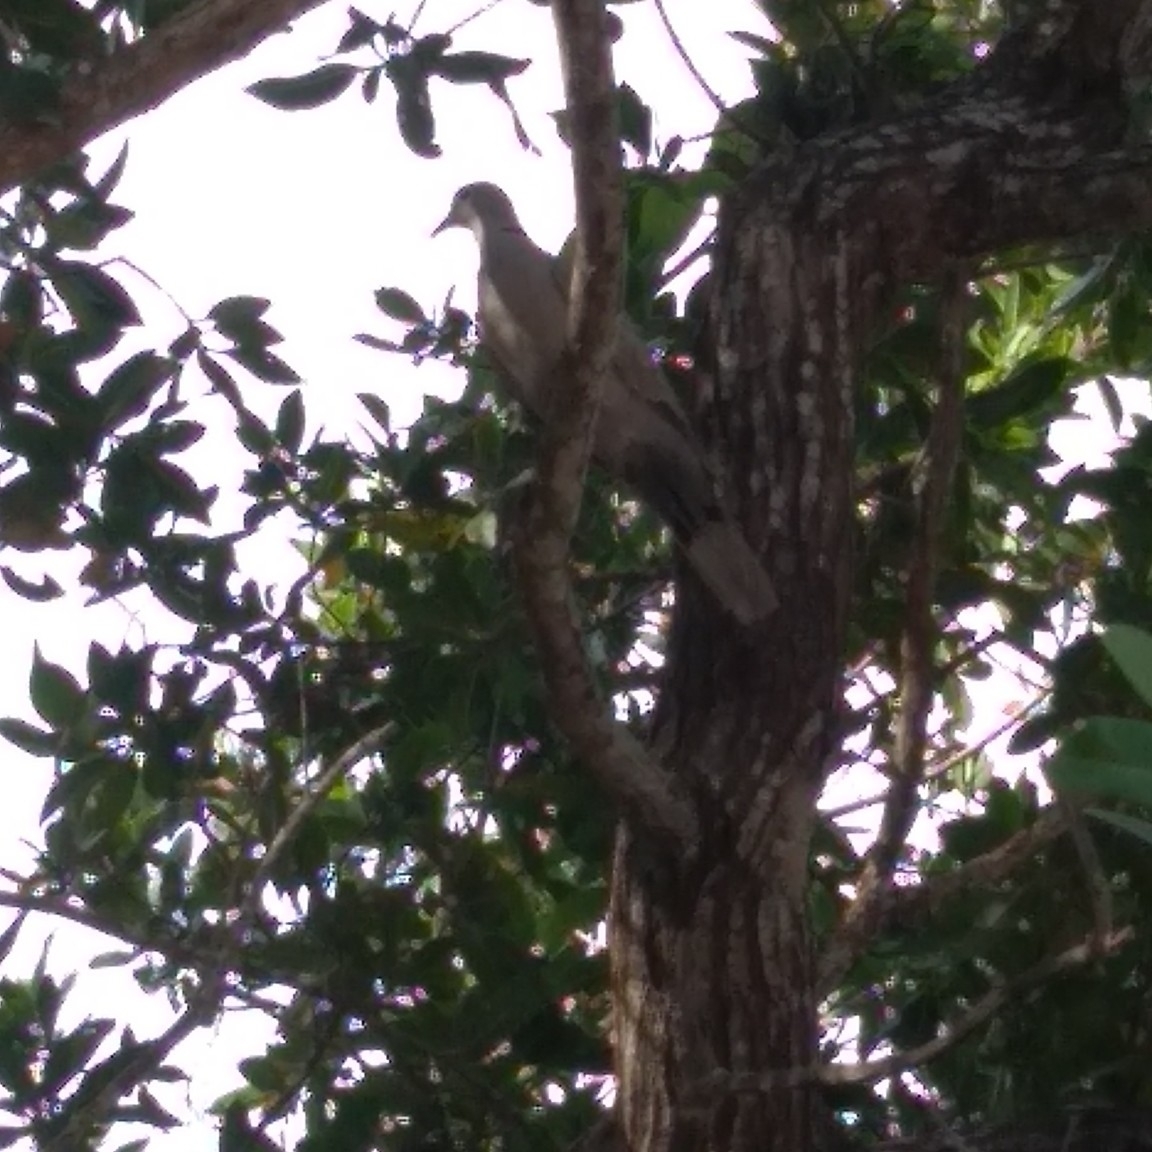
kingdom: Animalia
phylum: Chordata
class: Aves
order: Columbiformes
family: Columbidae
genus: Streptopelia
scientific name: Streptopelia decaocto
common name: Eurasian collared dove
